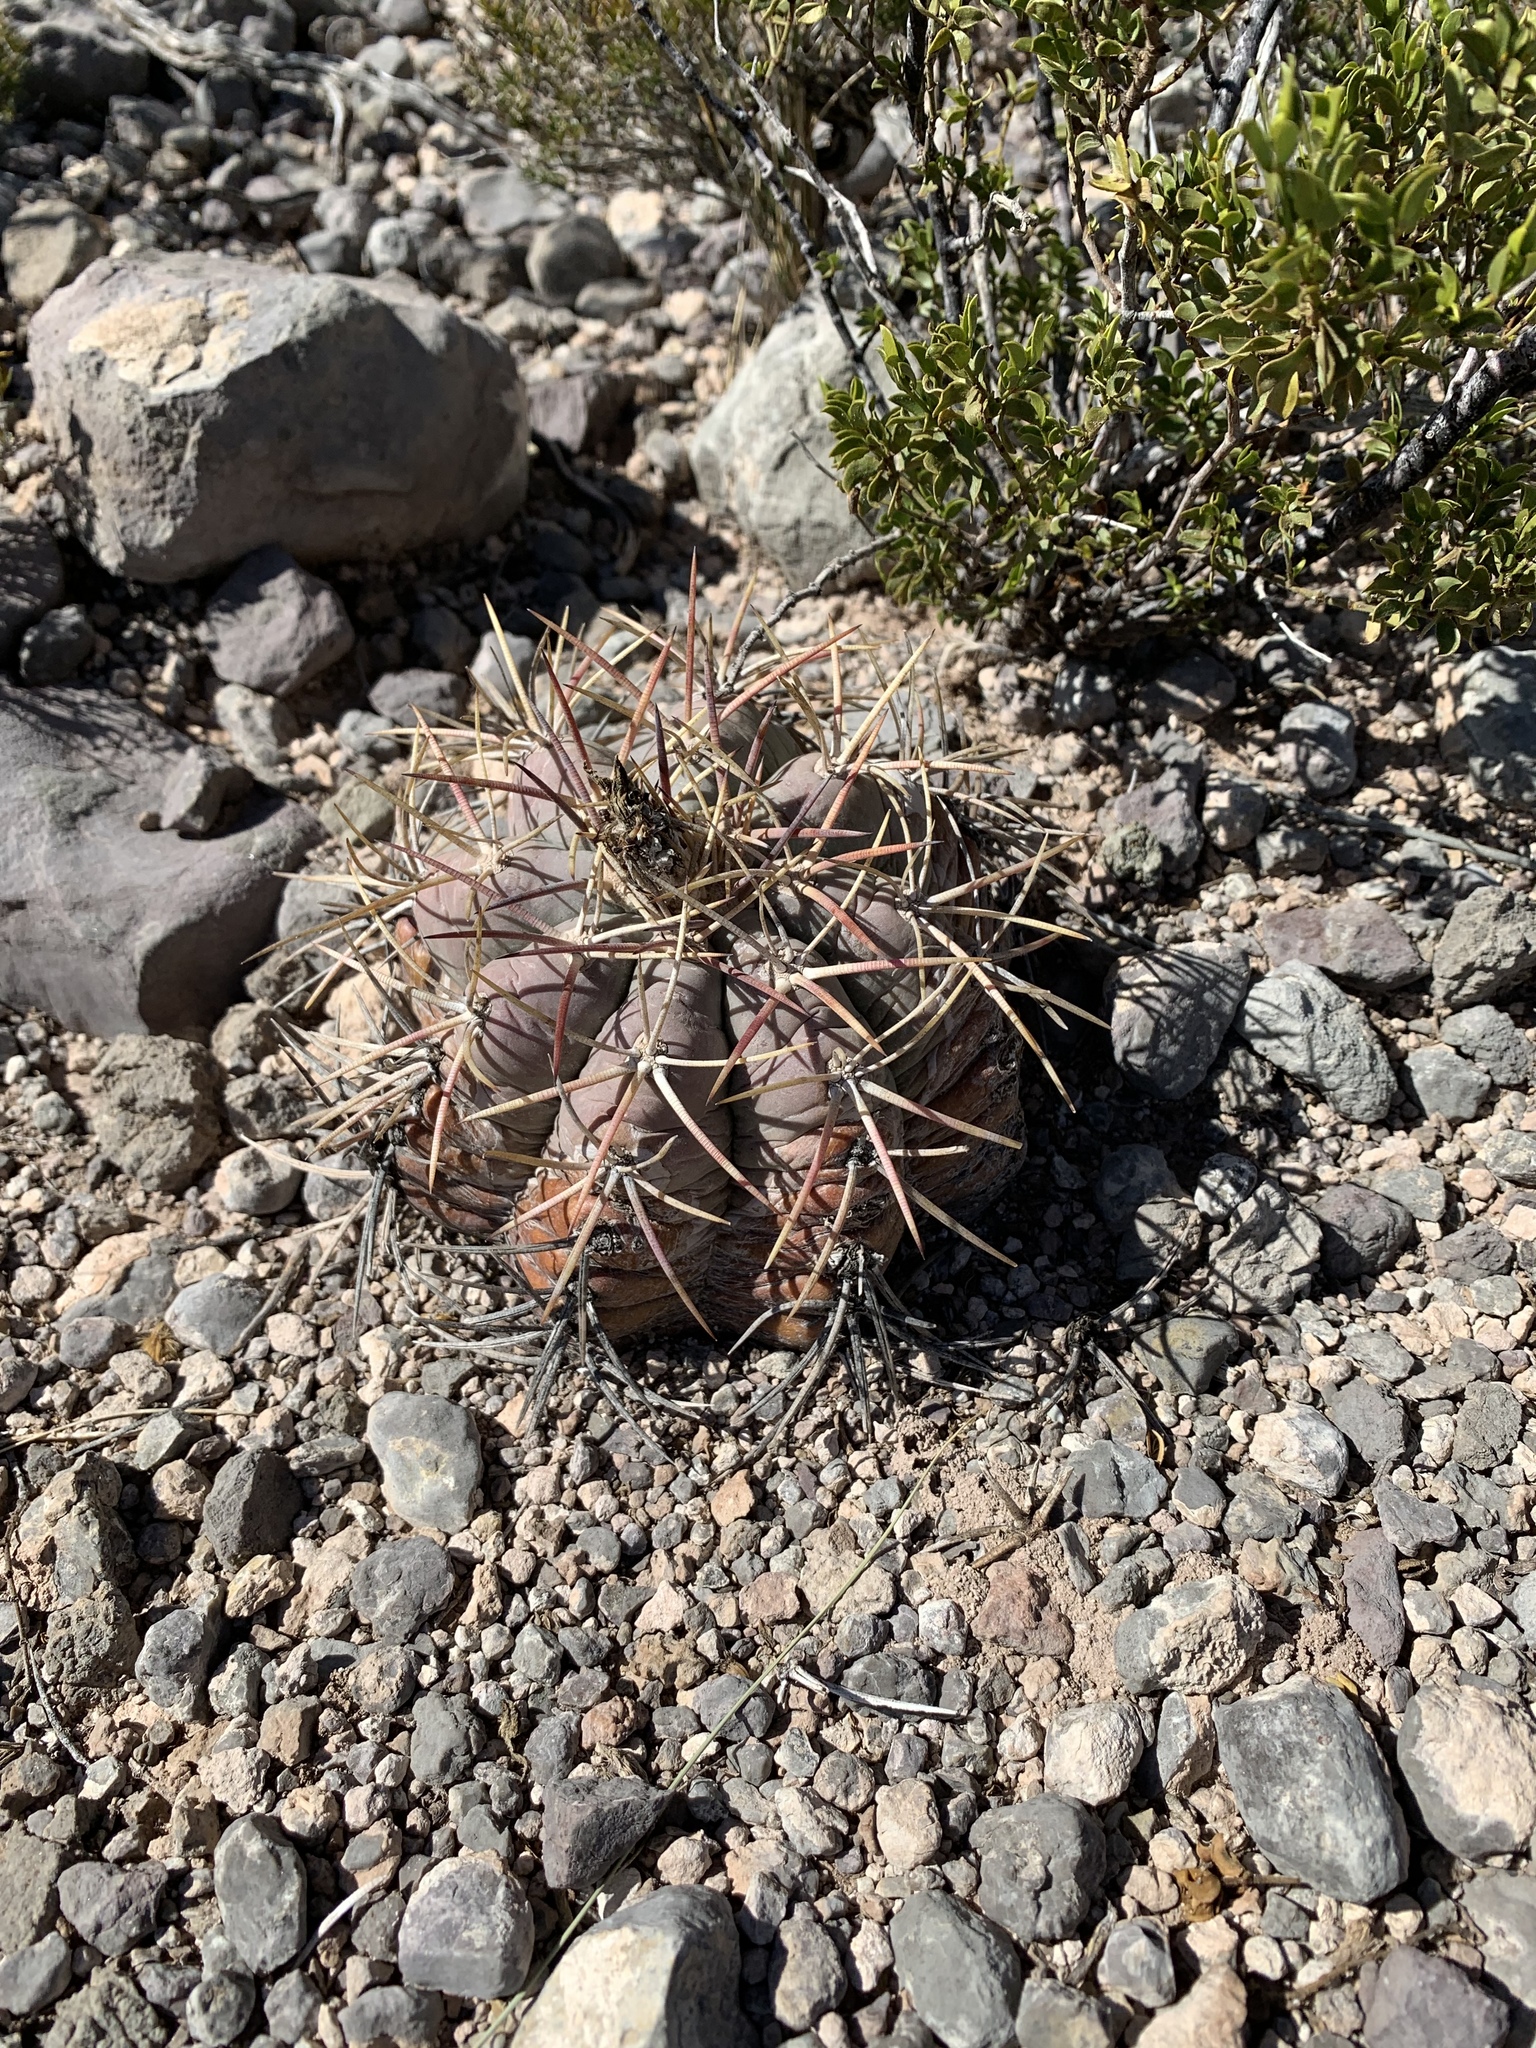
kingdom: Plantae
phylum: Tracheophyta
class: Magnoliopsida
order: Caryophyllales
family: Cactaceae
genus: Echinocactus
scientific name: Echinocactus horizonthalonius
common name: Devilshead
